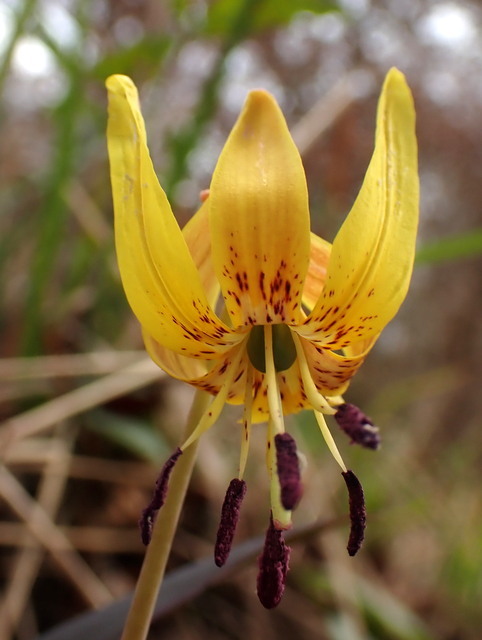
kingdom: Plantae
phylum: Tracheophyta
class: Liliopsida
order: Liliales
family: Liliaceae
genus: Erythronium
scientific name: Erythronium umbilicatum
